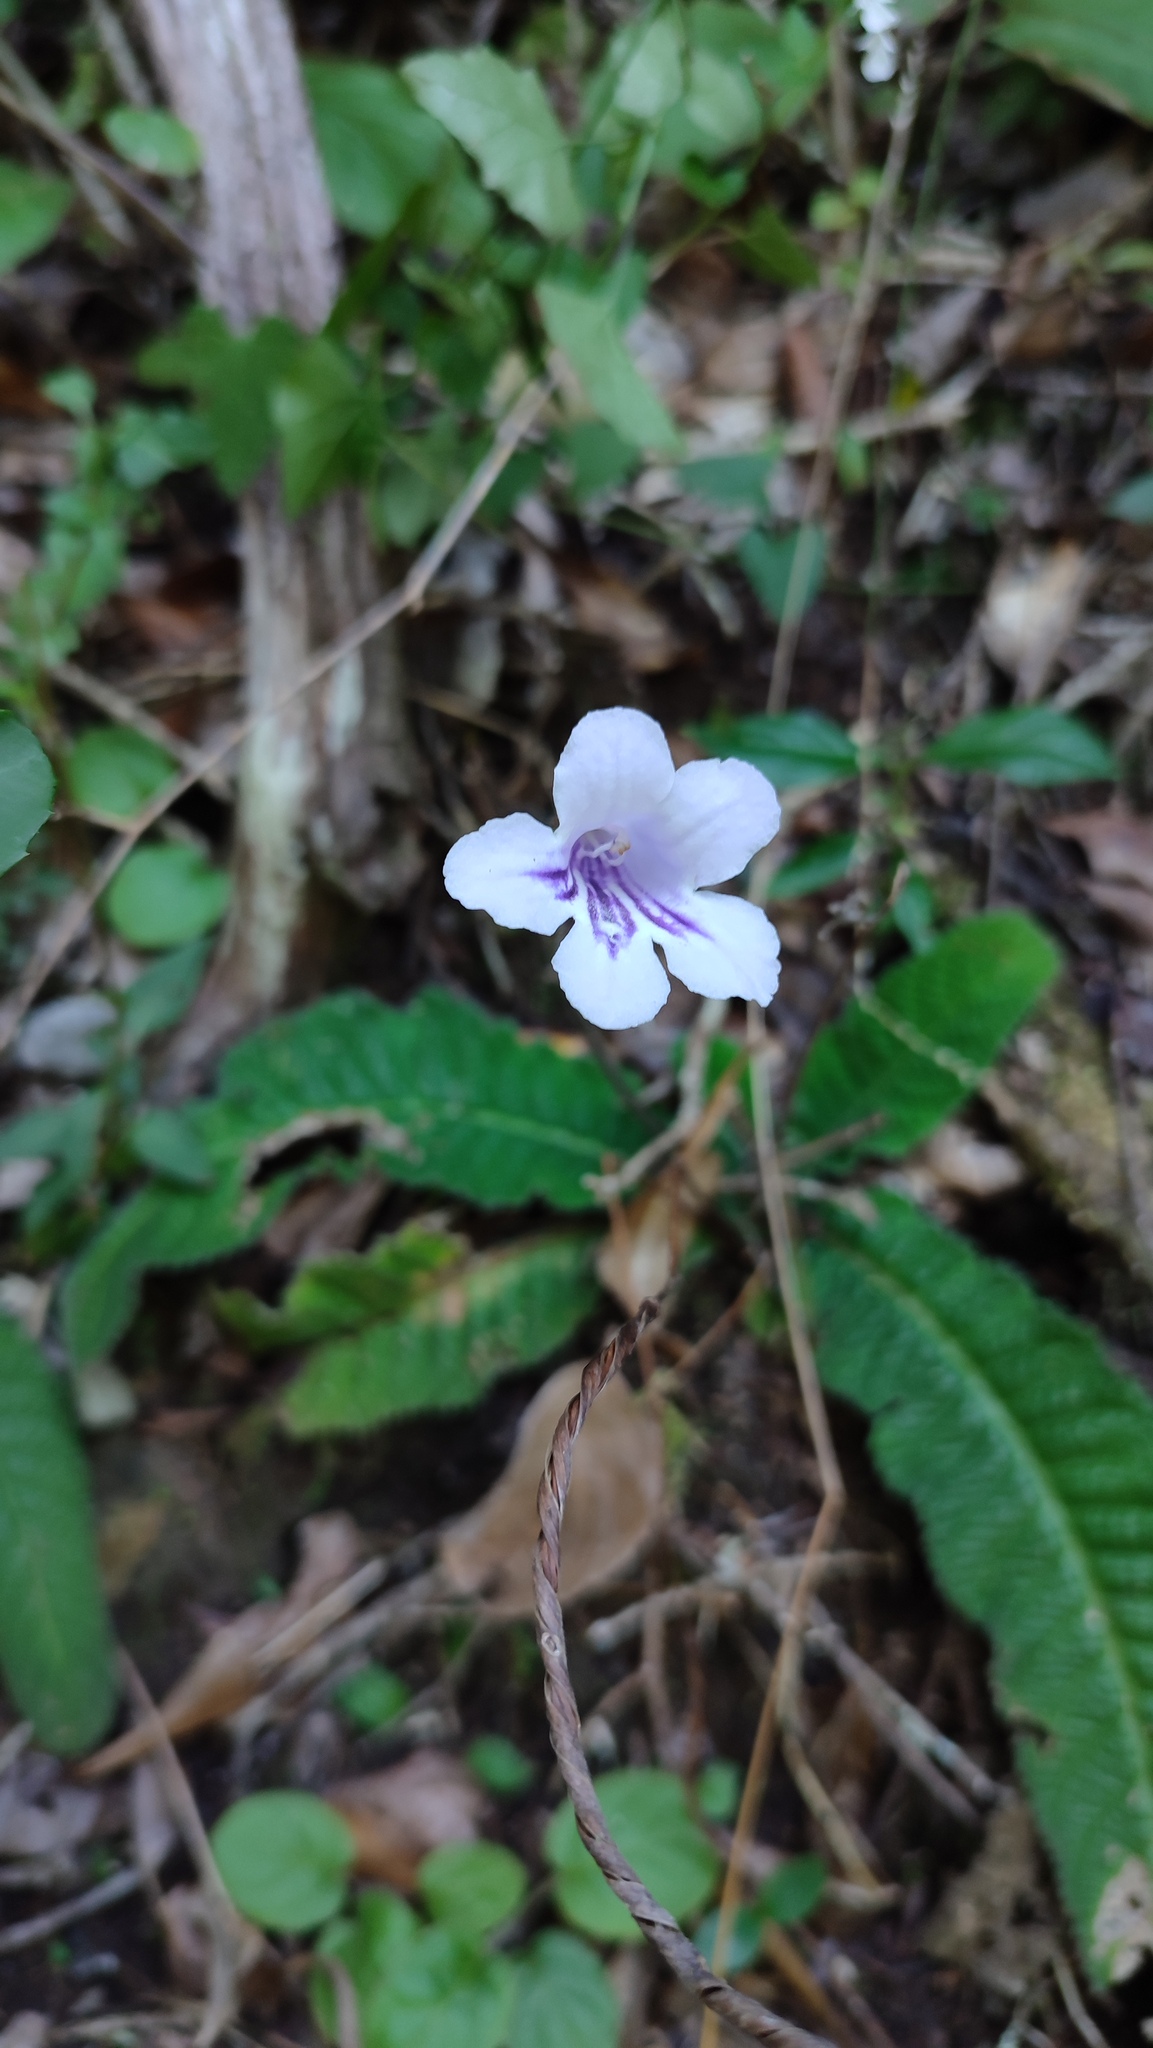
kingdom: Plantae
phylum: Tracheophyta
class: Magnoliopsida
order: Lamiales
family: Gesneriaceae
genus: Streptocarpus
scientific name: Streptocarpus rexii
